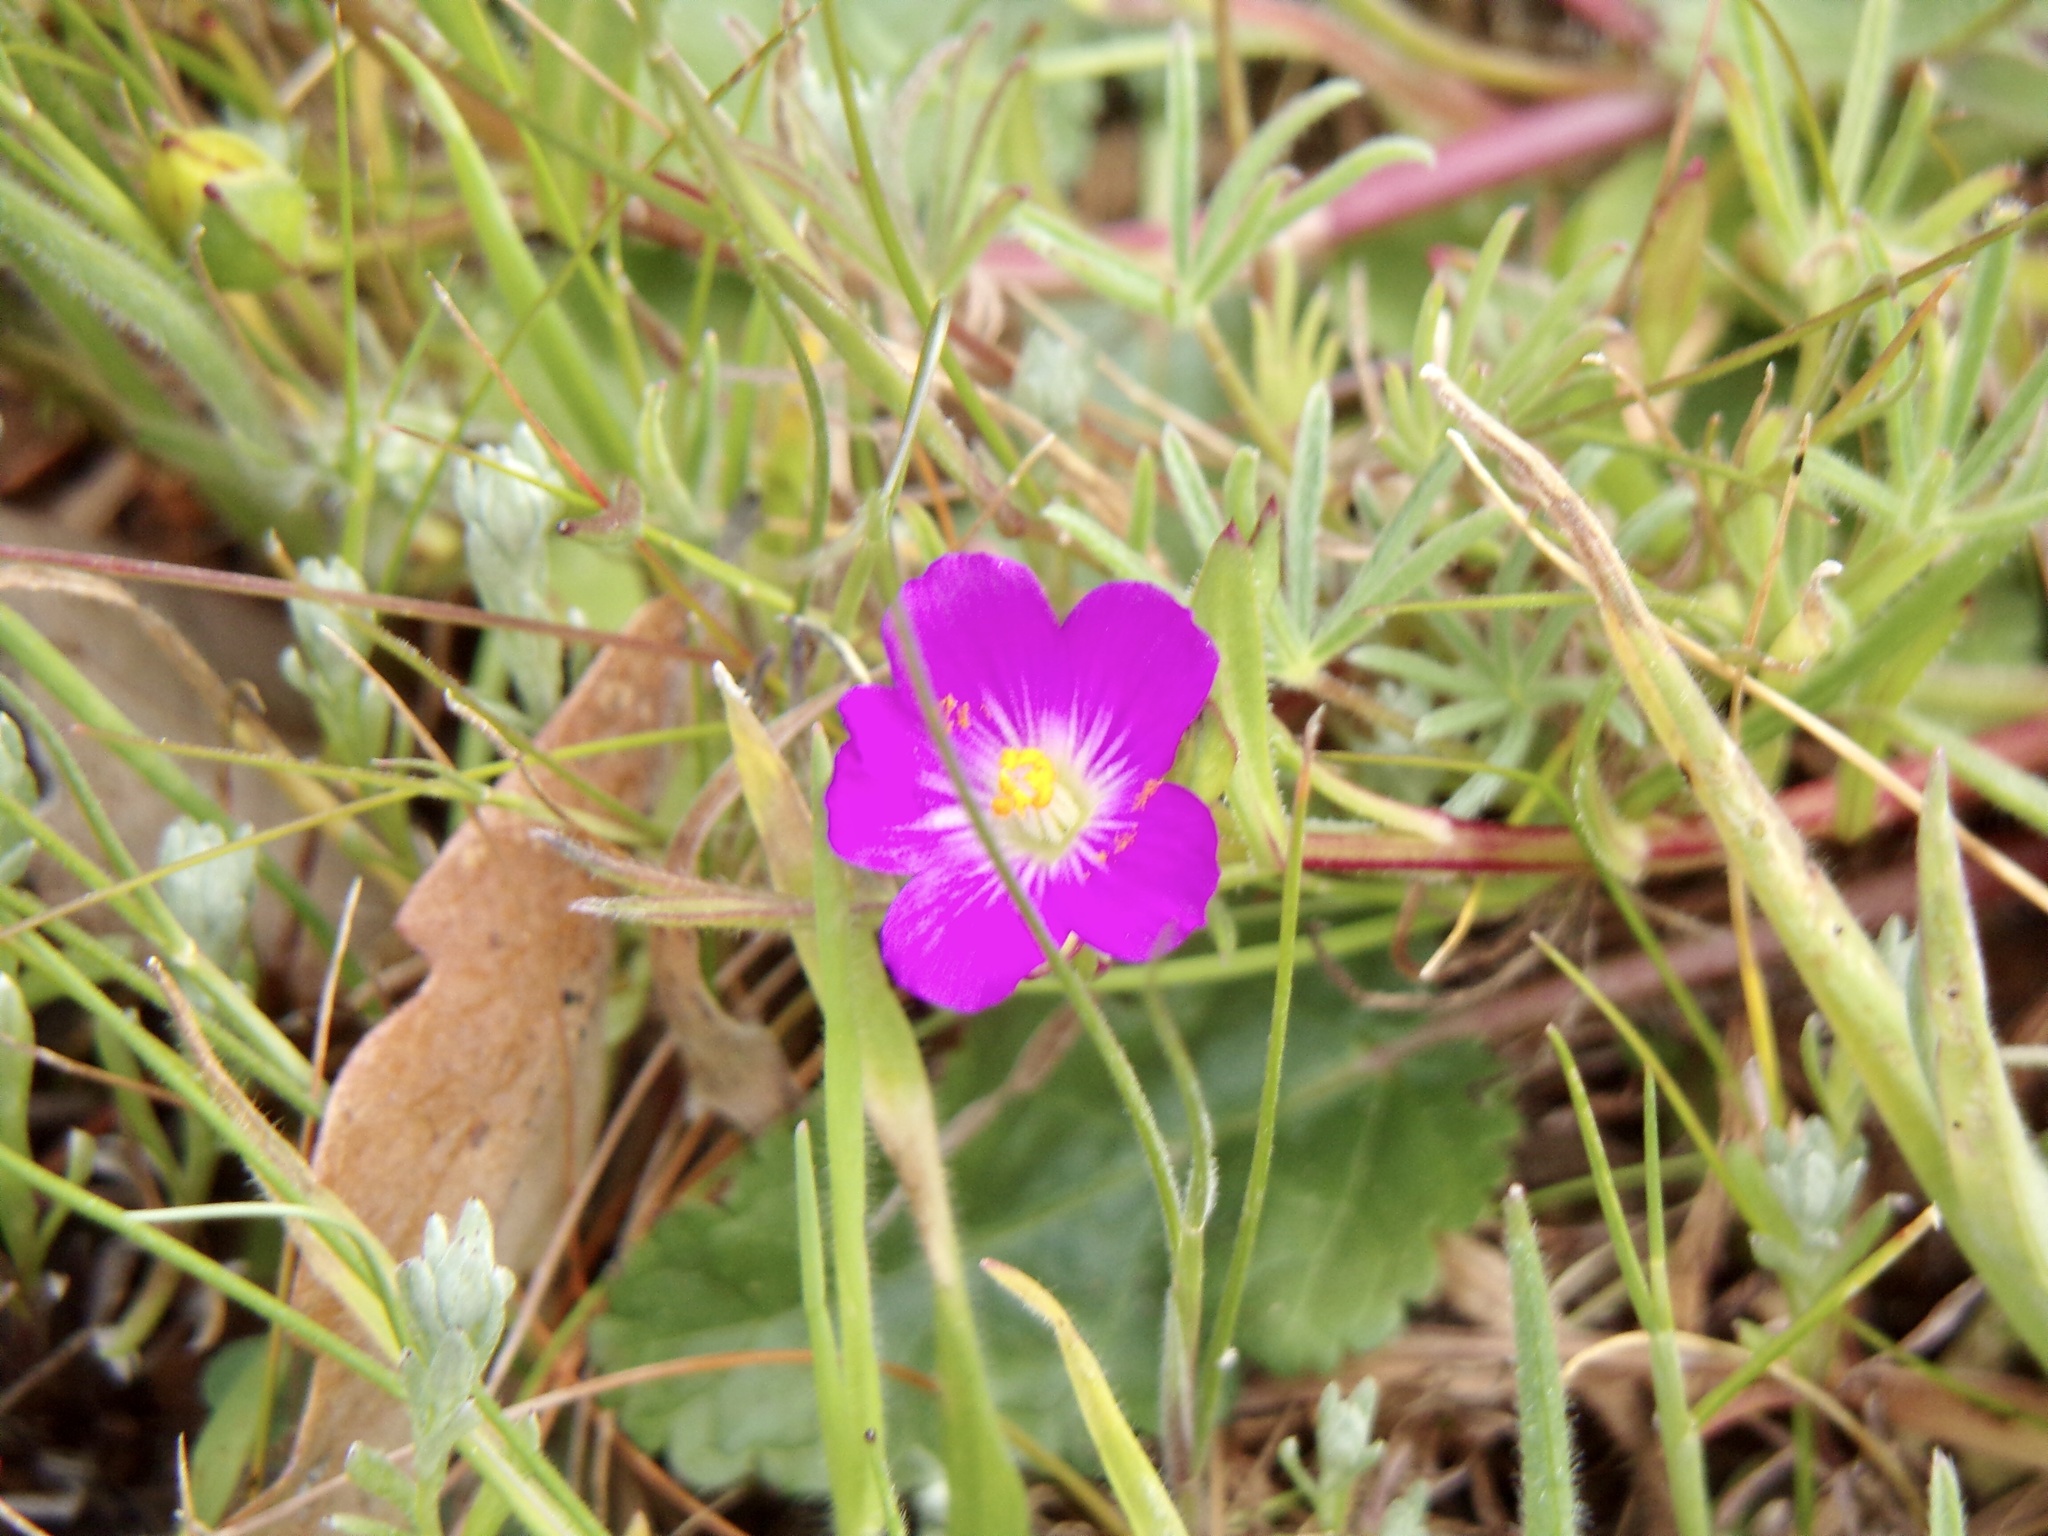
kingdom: Plantae
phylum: Tracheophyta
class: Magnoliopsida
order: Caryophyllales
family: Montiaceae
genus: Calandrinia
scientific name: Calandrinia menziesii
